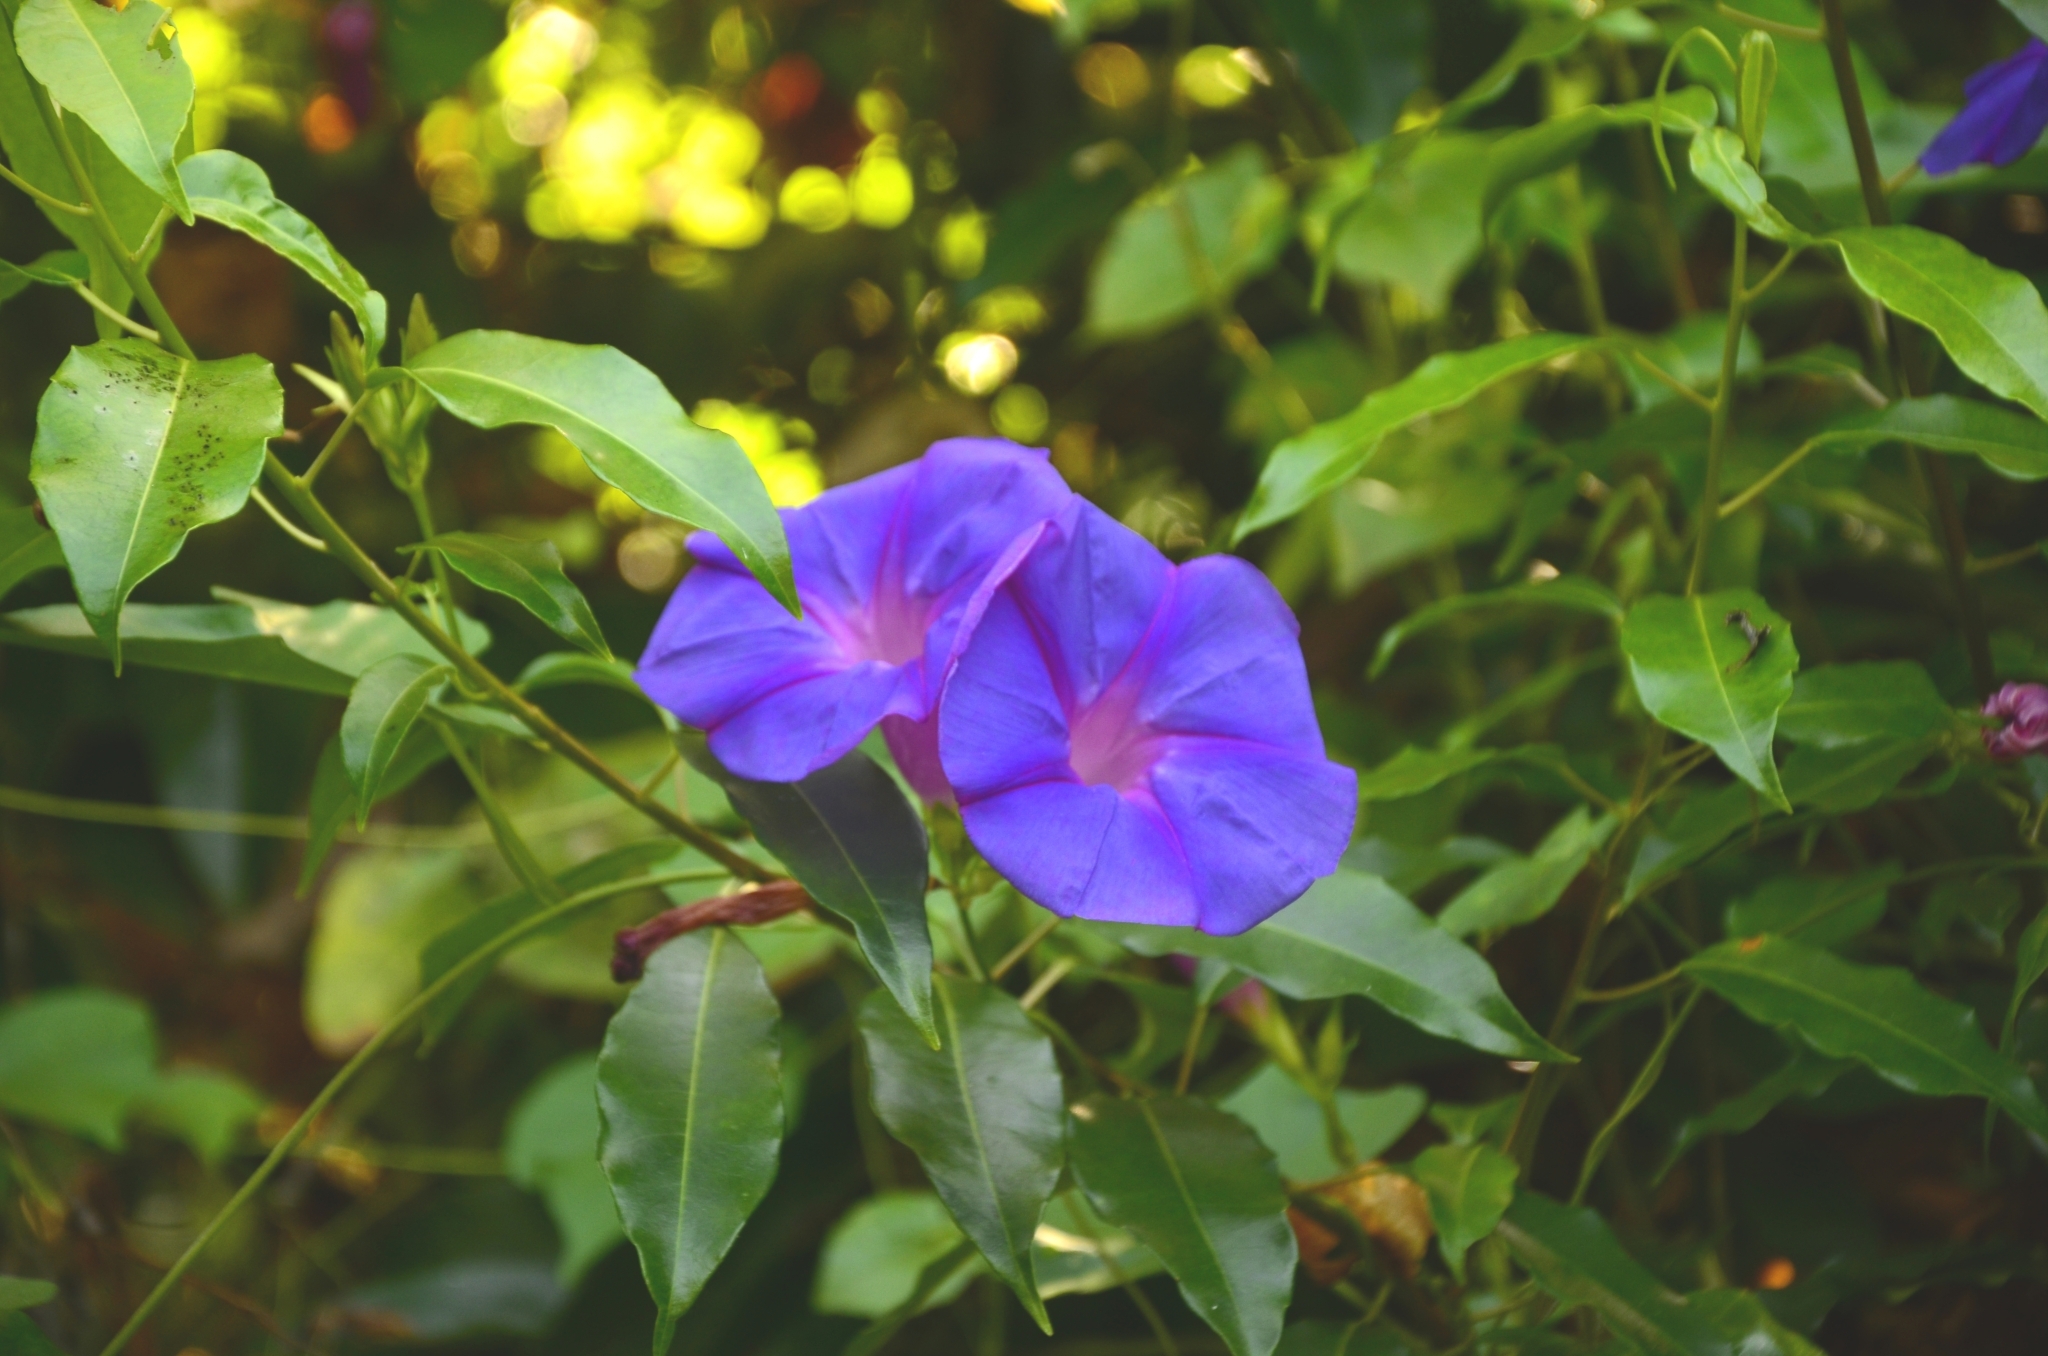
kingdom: Plantae
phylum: Tracheophyta
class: Magnoliopsida
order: Solanales
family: Convolvulaceae
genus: Ipomoea
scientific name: Ipomoea indica
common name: Blue dawnflower
